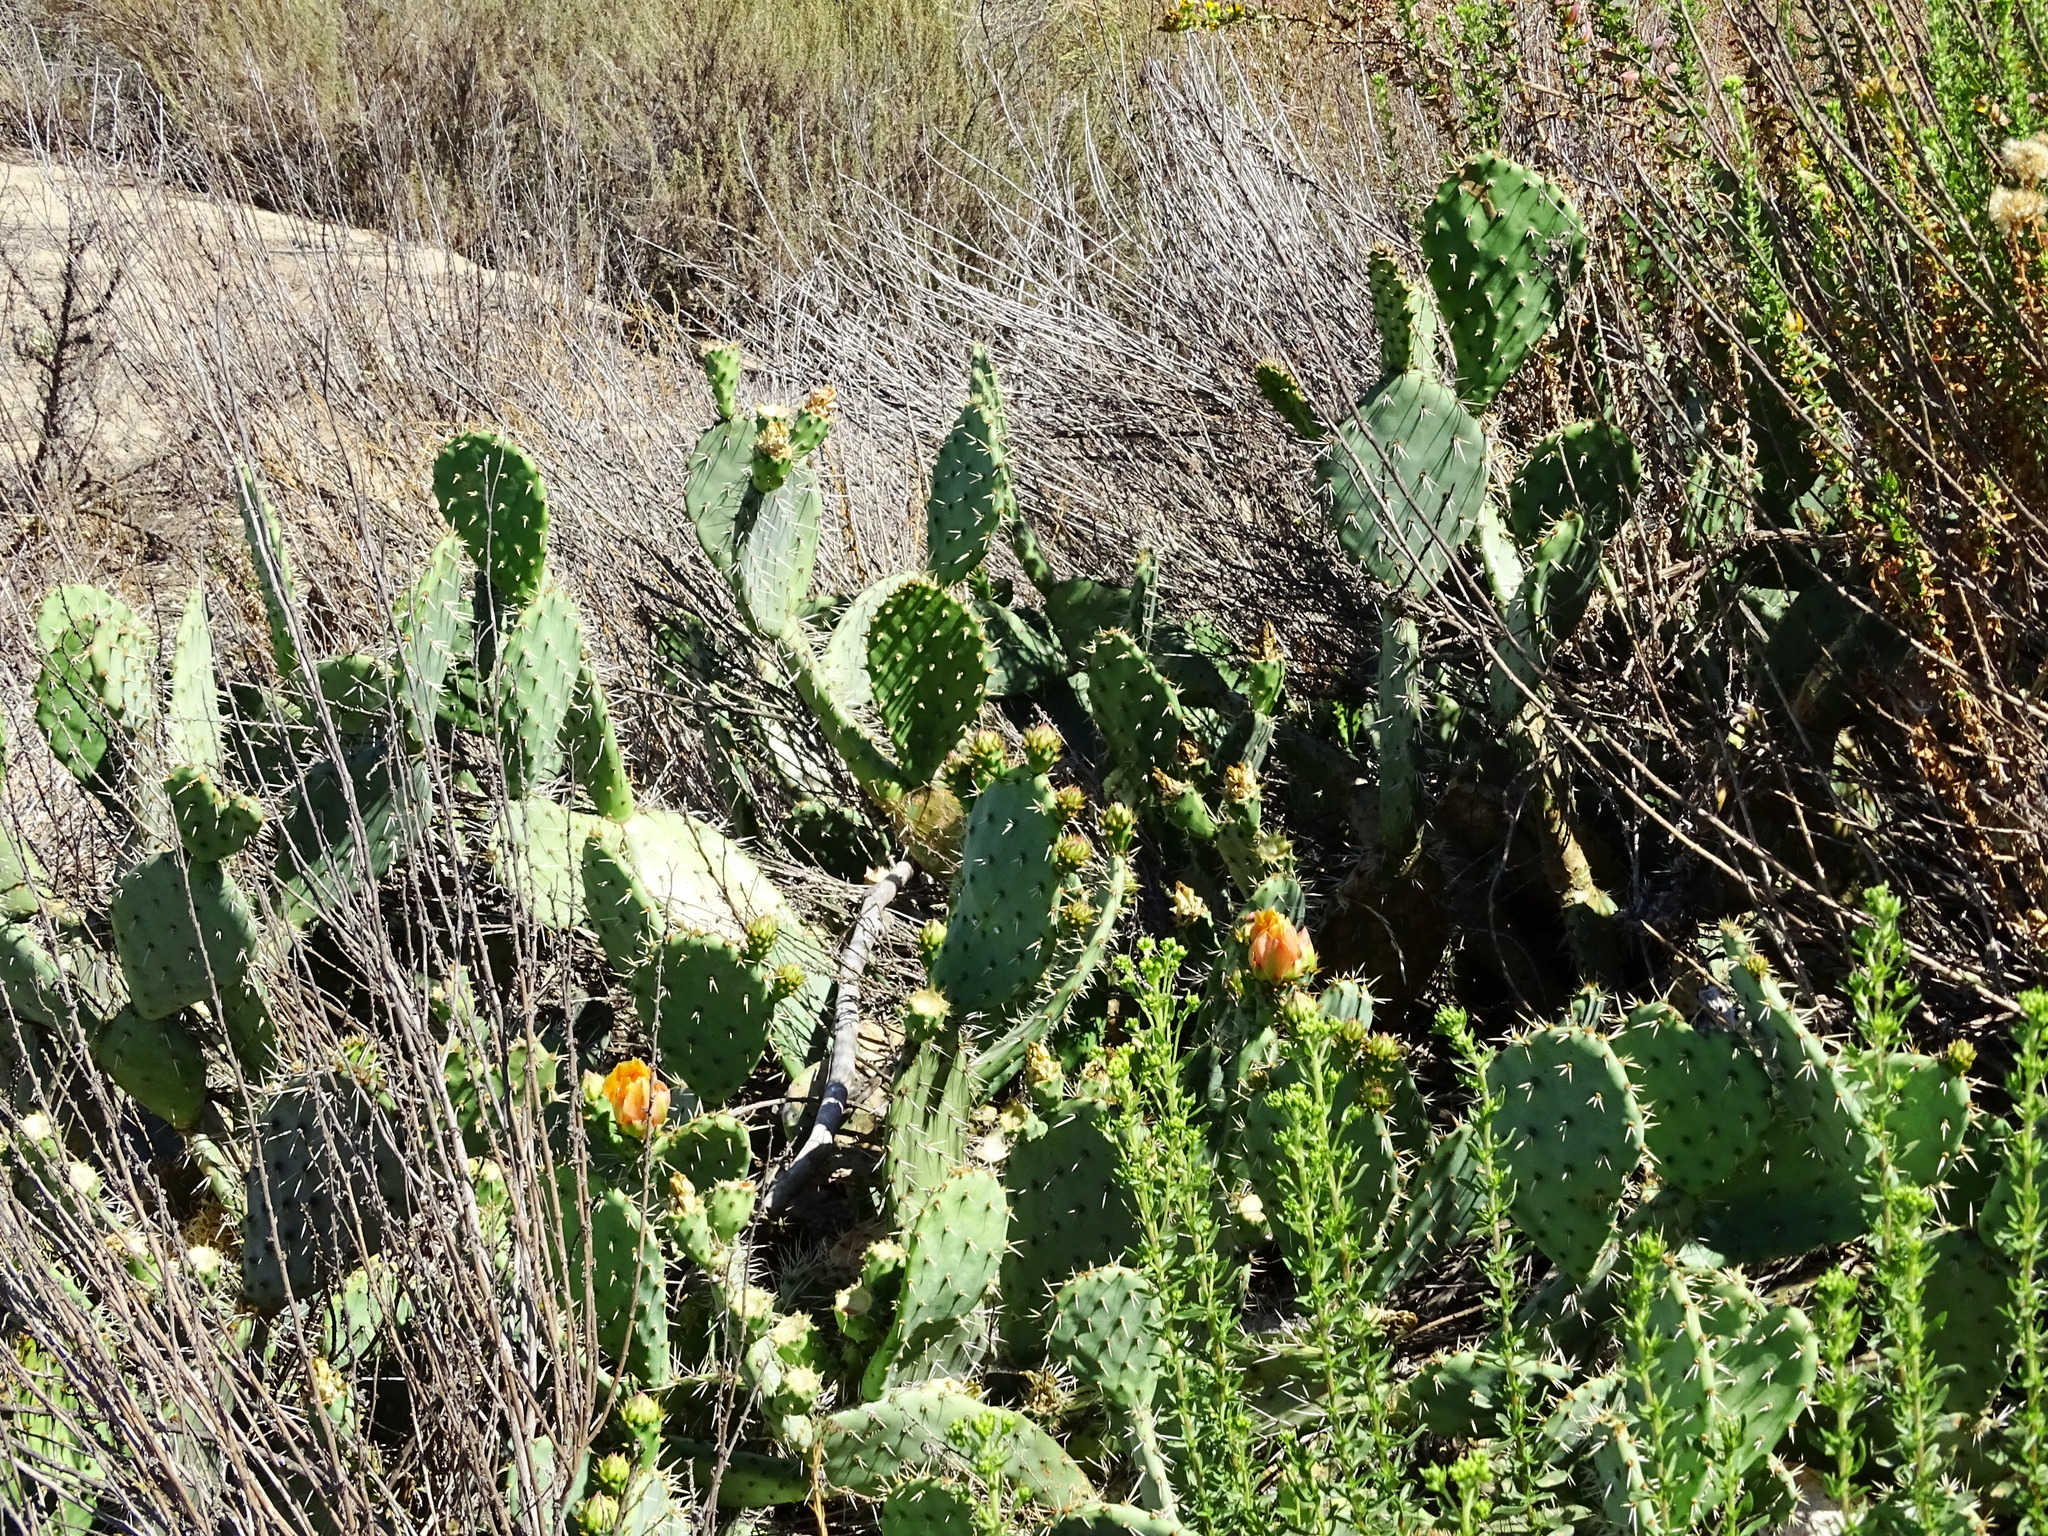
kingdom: Plantae
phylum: Tracheophyta
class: Magnoliopsida
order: Caryophyllales
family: Cactaceae
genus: Opuntia
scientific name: Opuntia littoralis
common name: Coastal prickly-pear
